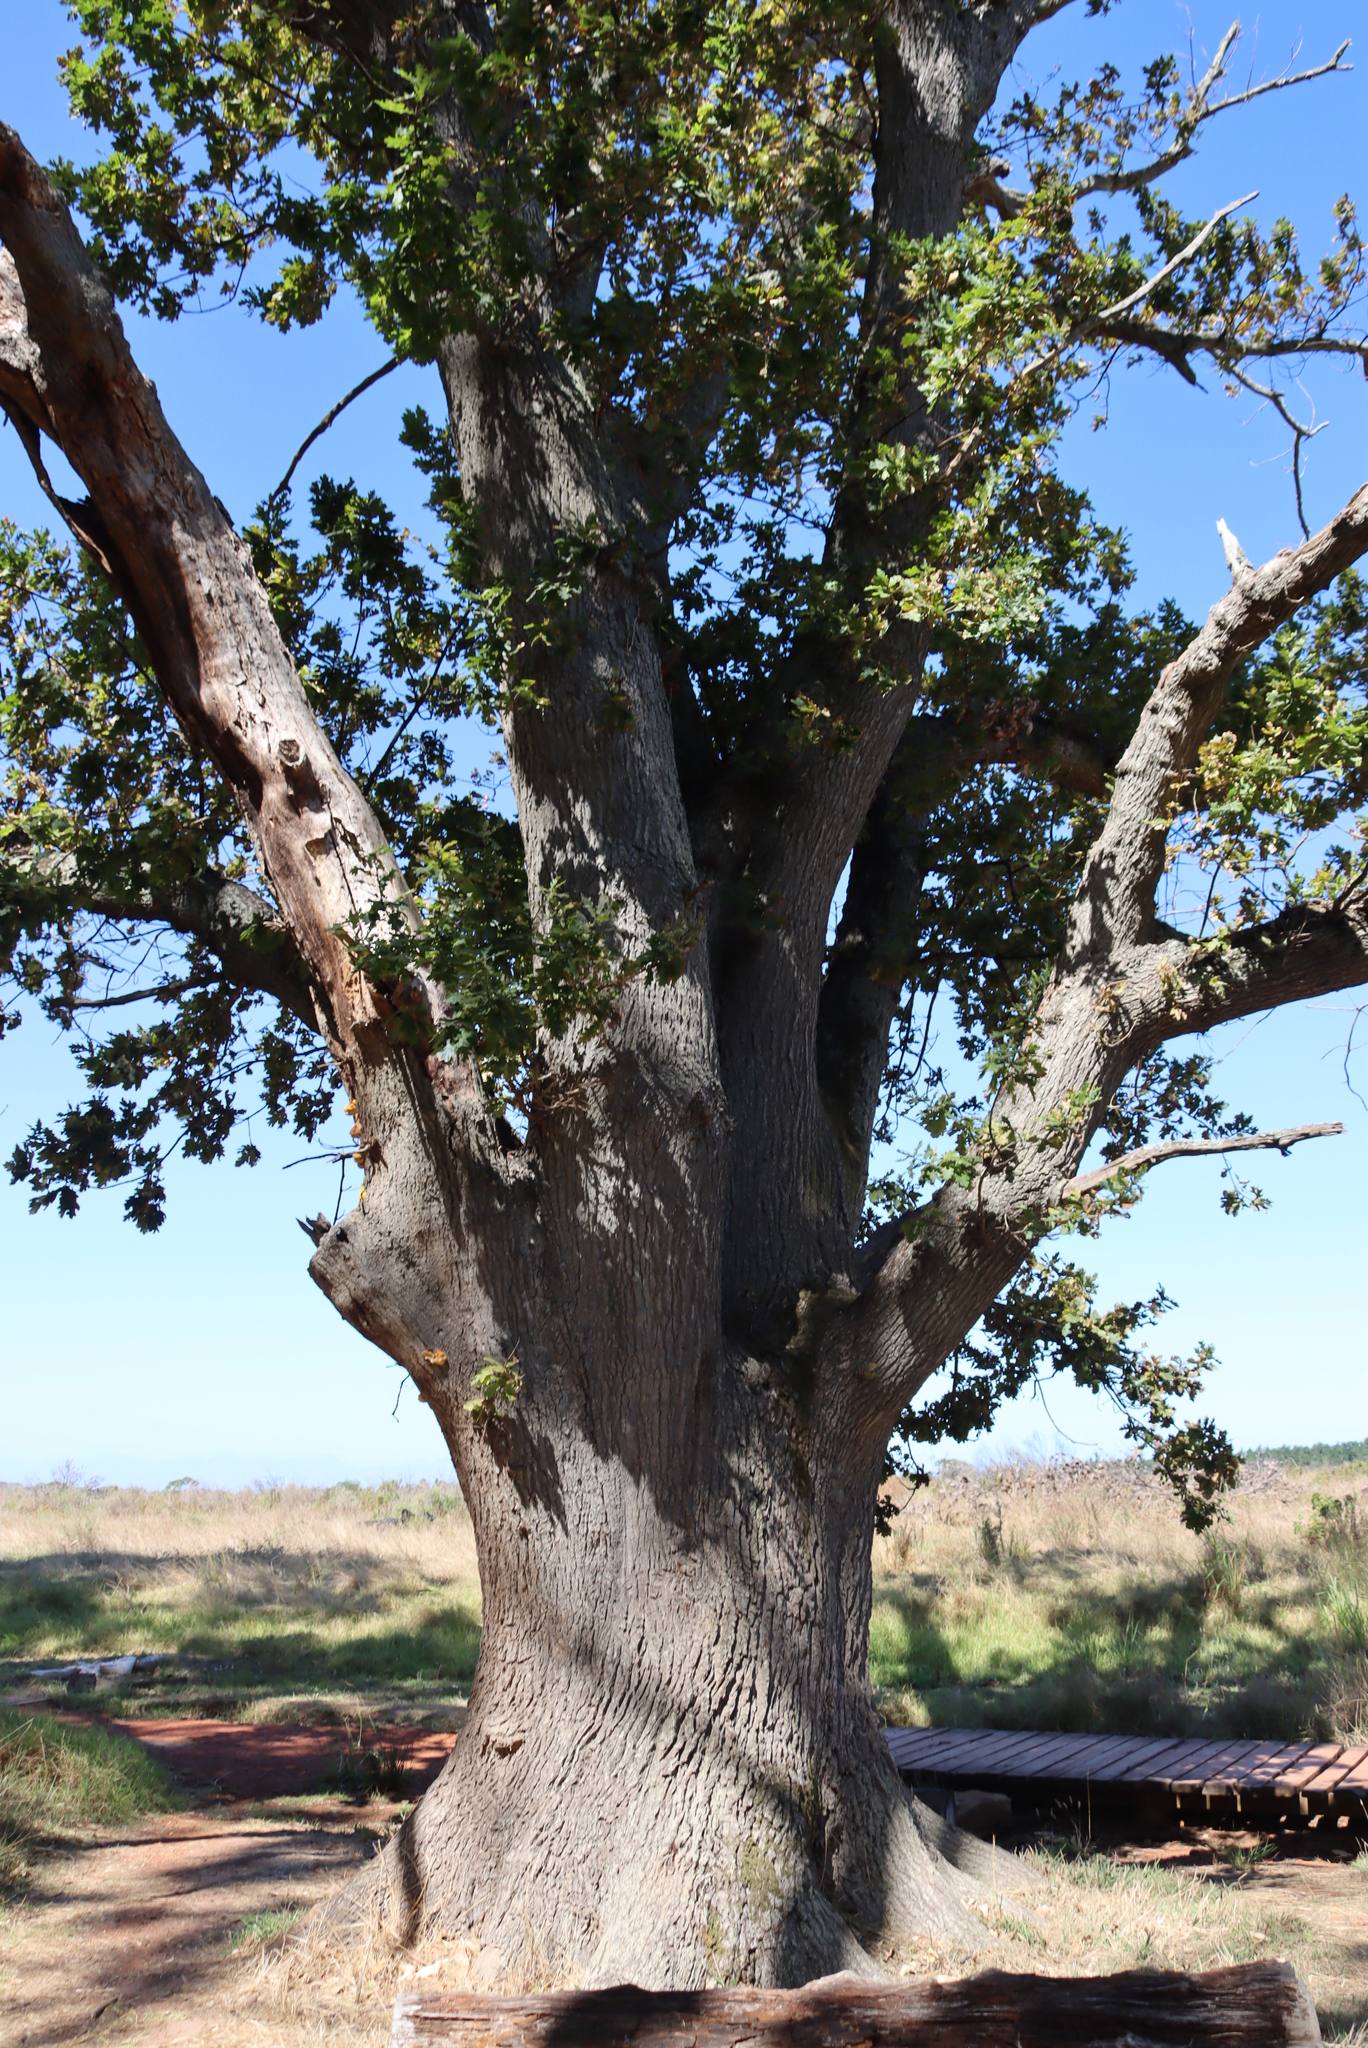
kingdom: Plantae
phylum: Tracheophyta
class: Magnoliopsida
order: Fagales
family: Fagaceae
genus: Quercus
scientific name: Quercus robur
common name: Pedunculate oak
